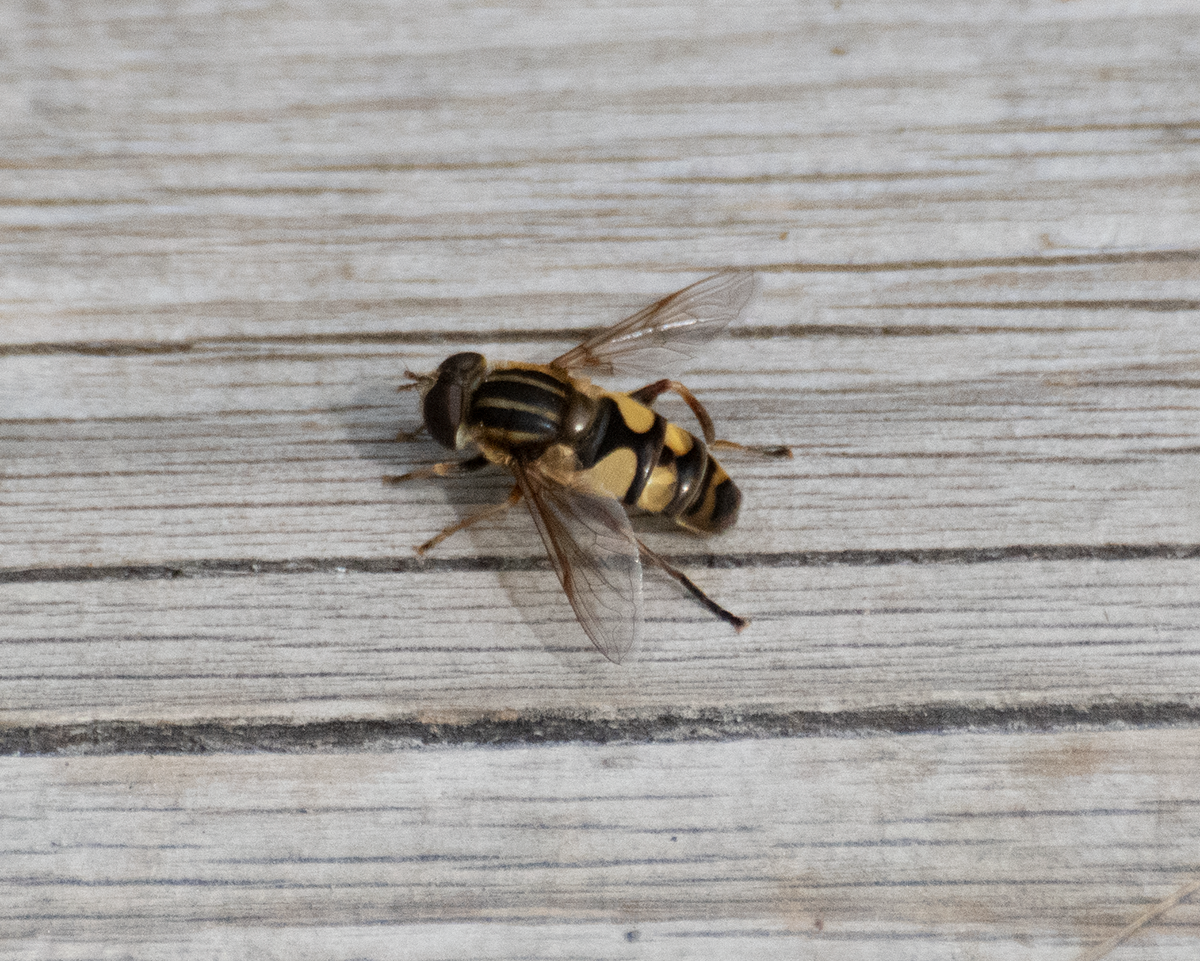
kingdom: Animalia
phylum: Arthropoda
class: Insecta
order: Diptera
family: Syrphidae
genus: Helophilus
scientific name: Helophilus fasciatus
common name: Narrow-headed marsh fly
